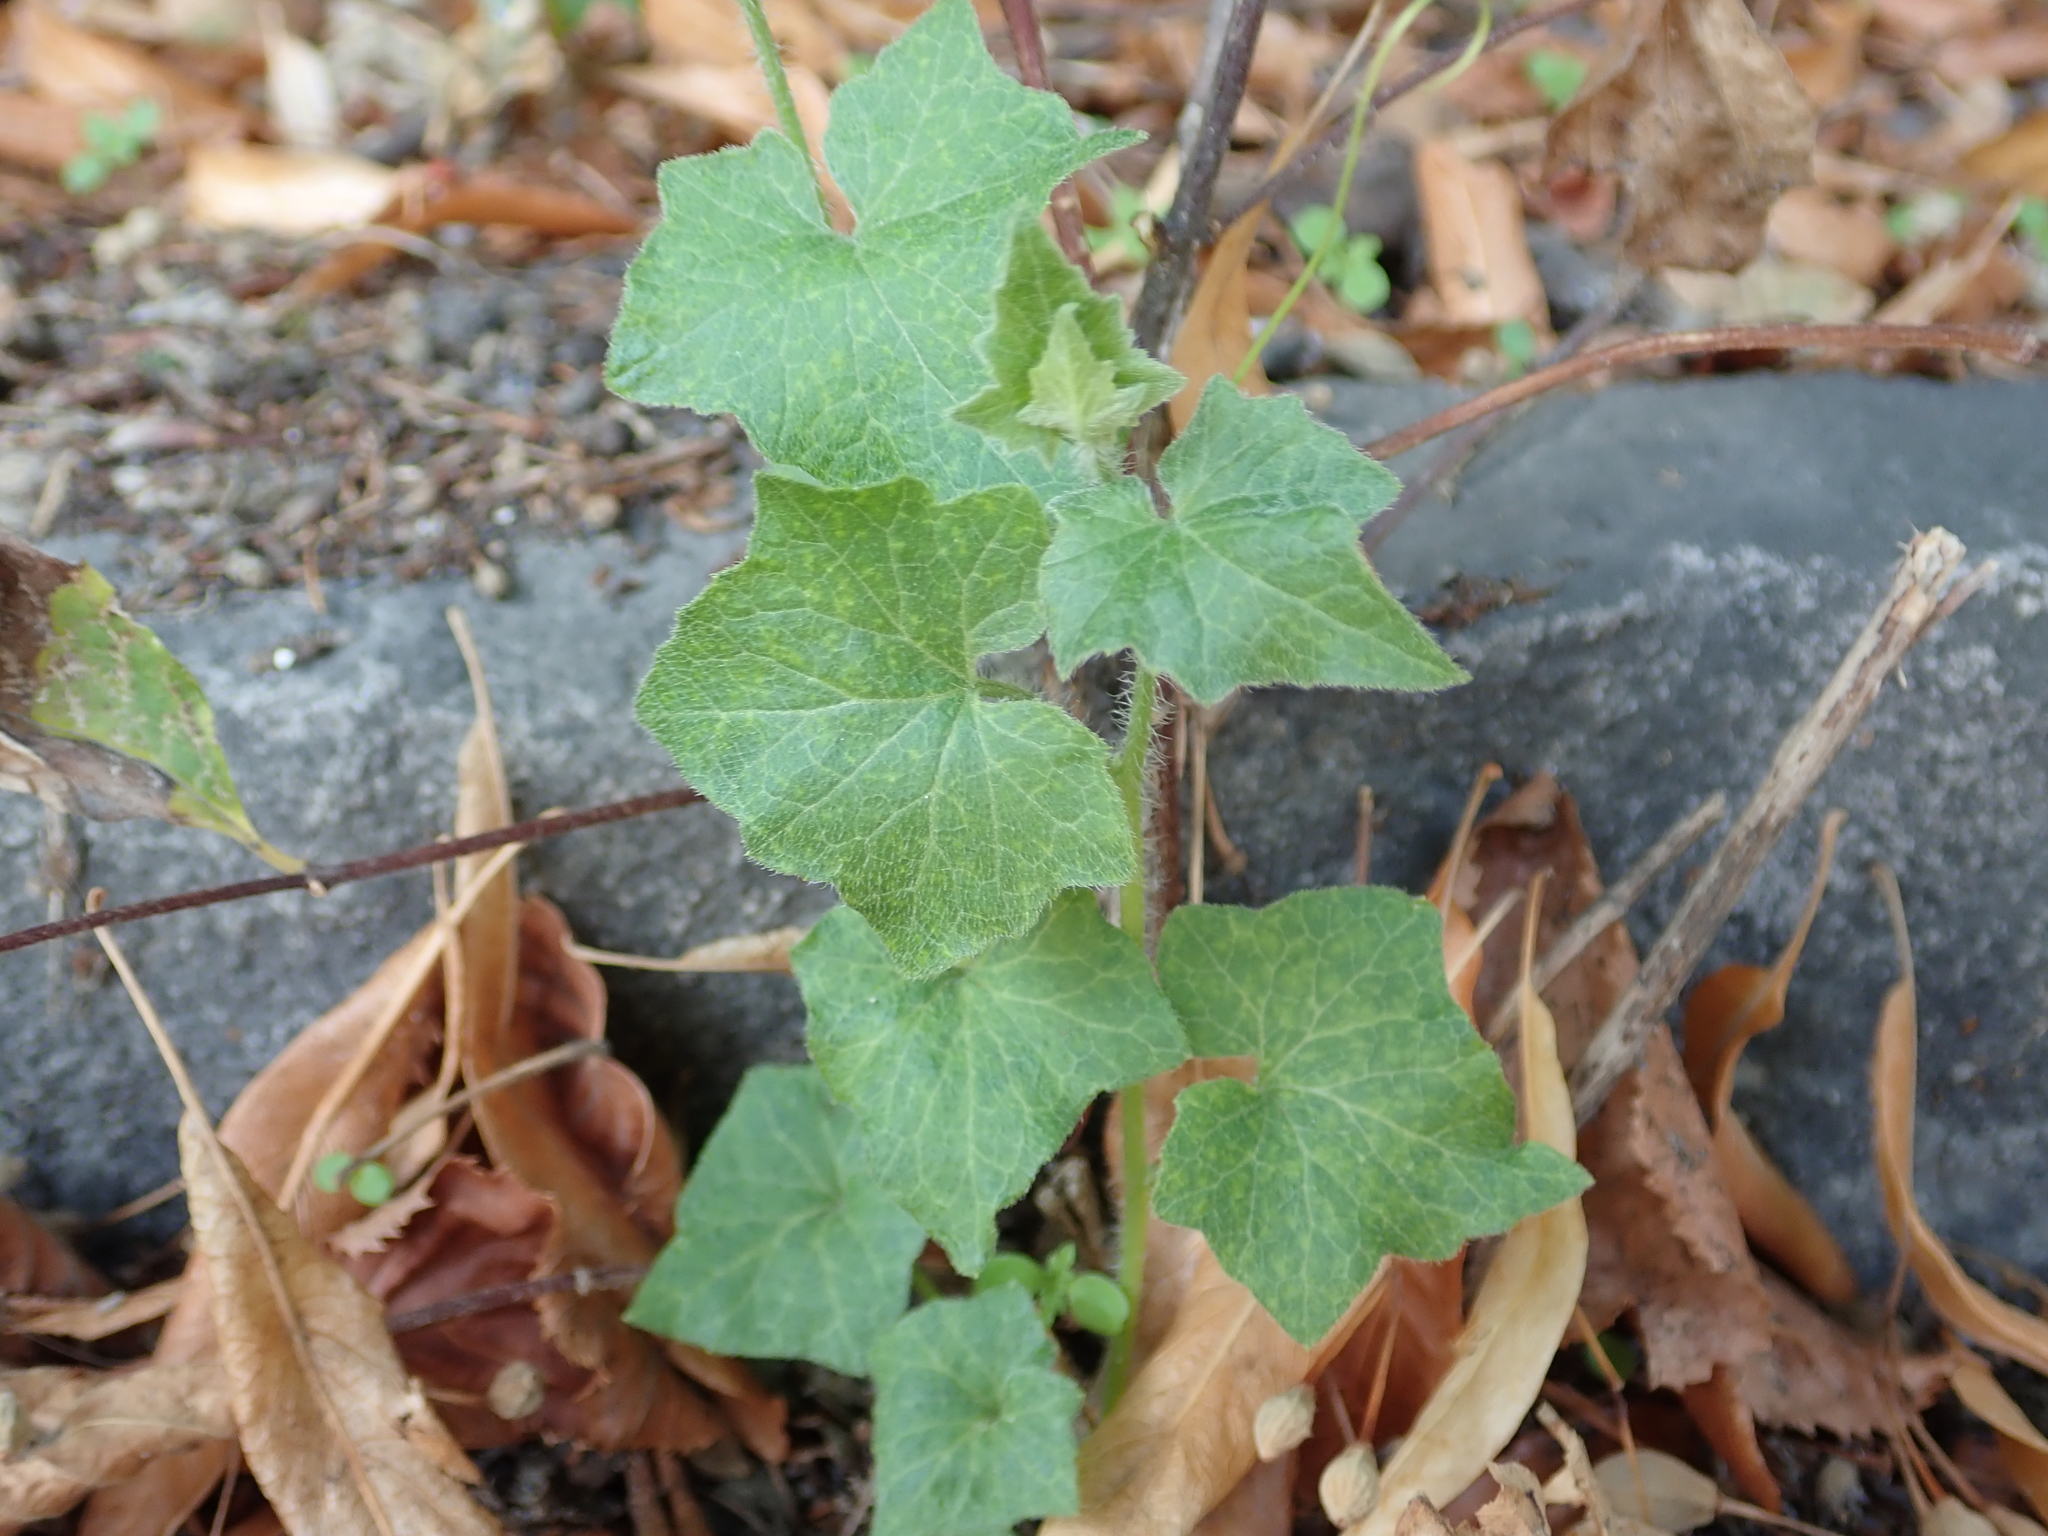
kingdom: Plantae
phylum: Tracheophyta
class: Magnoliopsida
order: Cucurbitales
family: Cucurbitaceae
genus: Bryonia
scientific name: Bryonia cretica
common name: Cretan bryony
